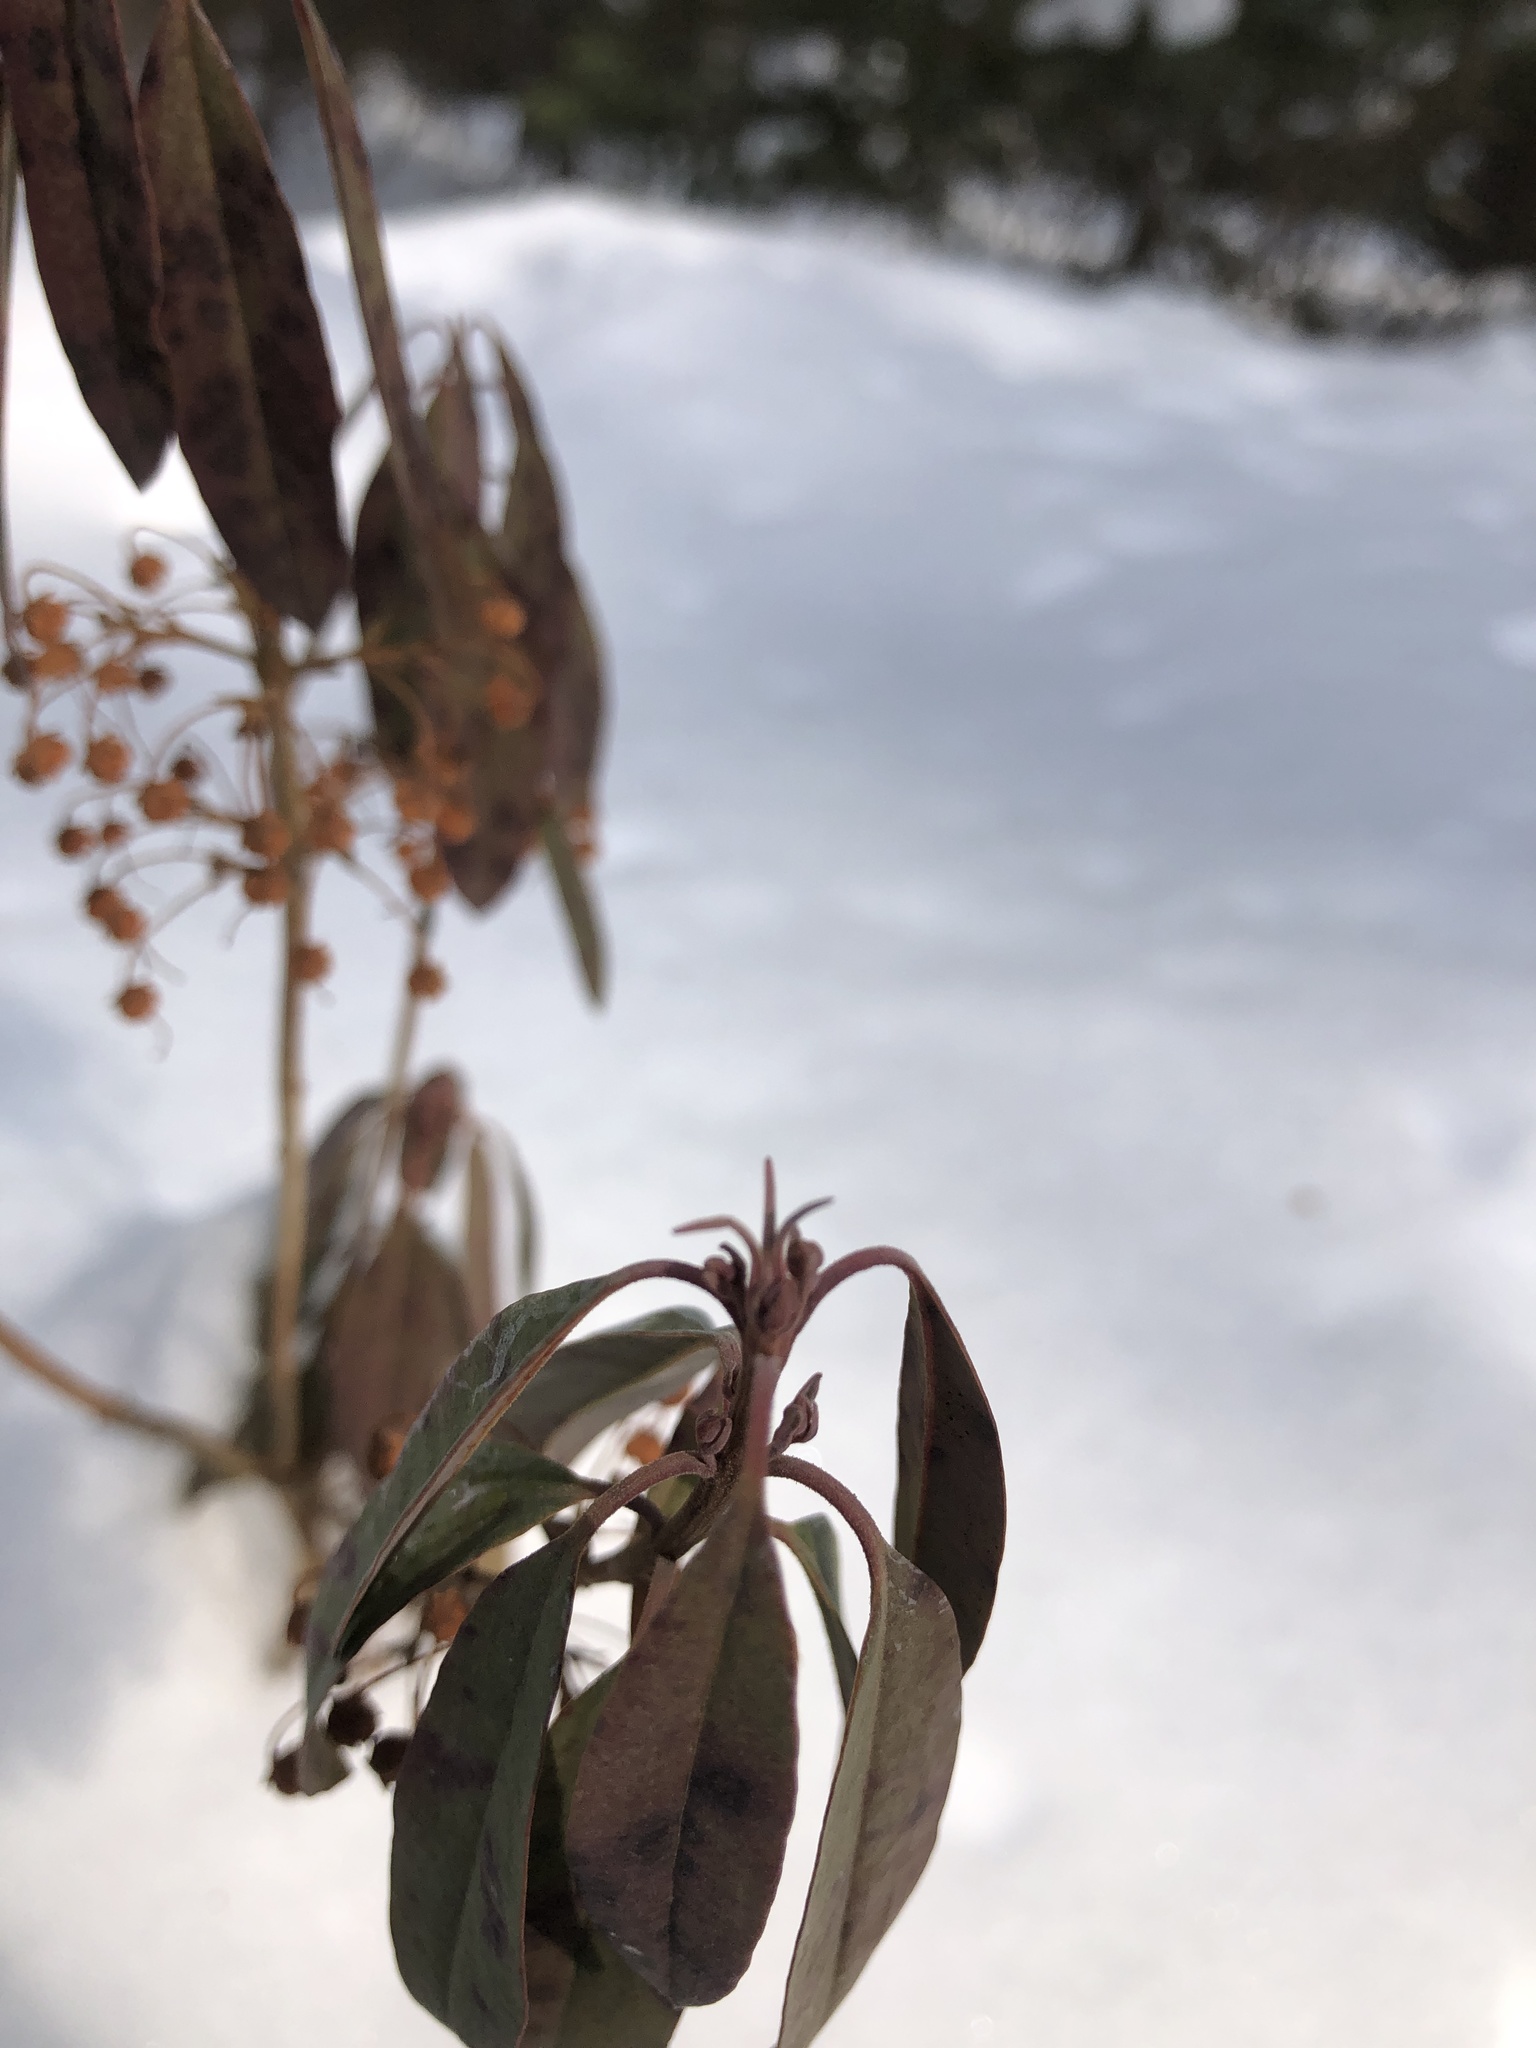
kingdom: Plantae
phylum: Tracheophyta
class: Magnoliopsida
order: Ericales
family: Ericaceae
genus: Kalmia
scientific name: Kalmia angustifolia
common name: Sheep-laurel
